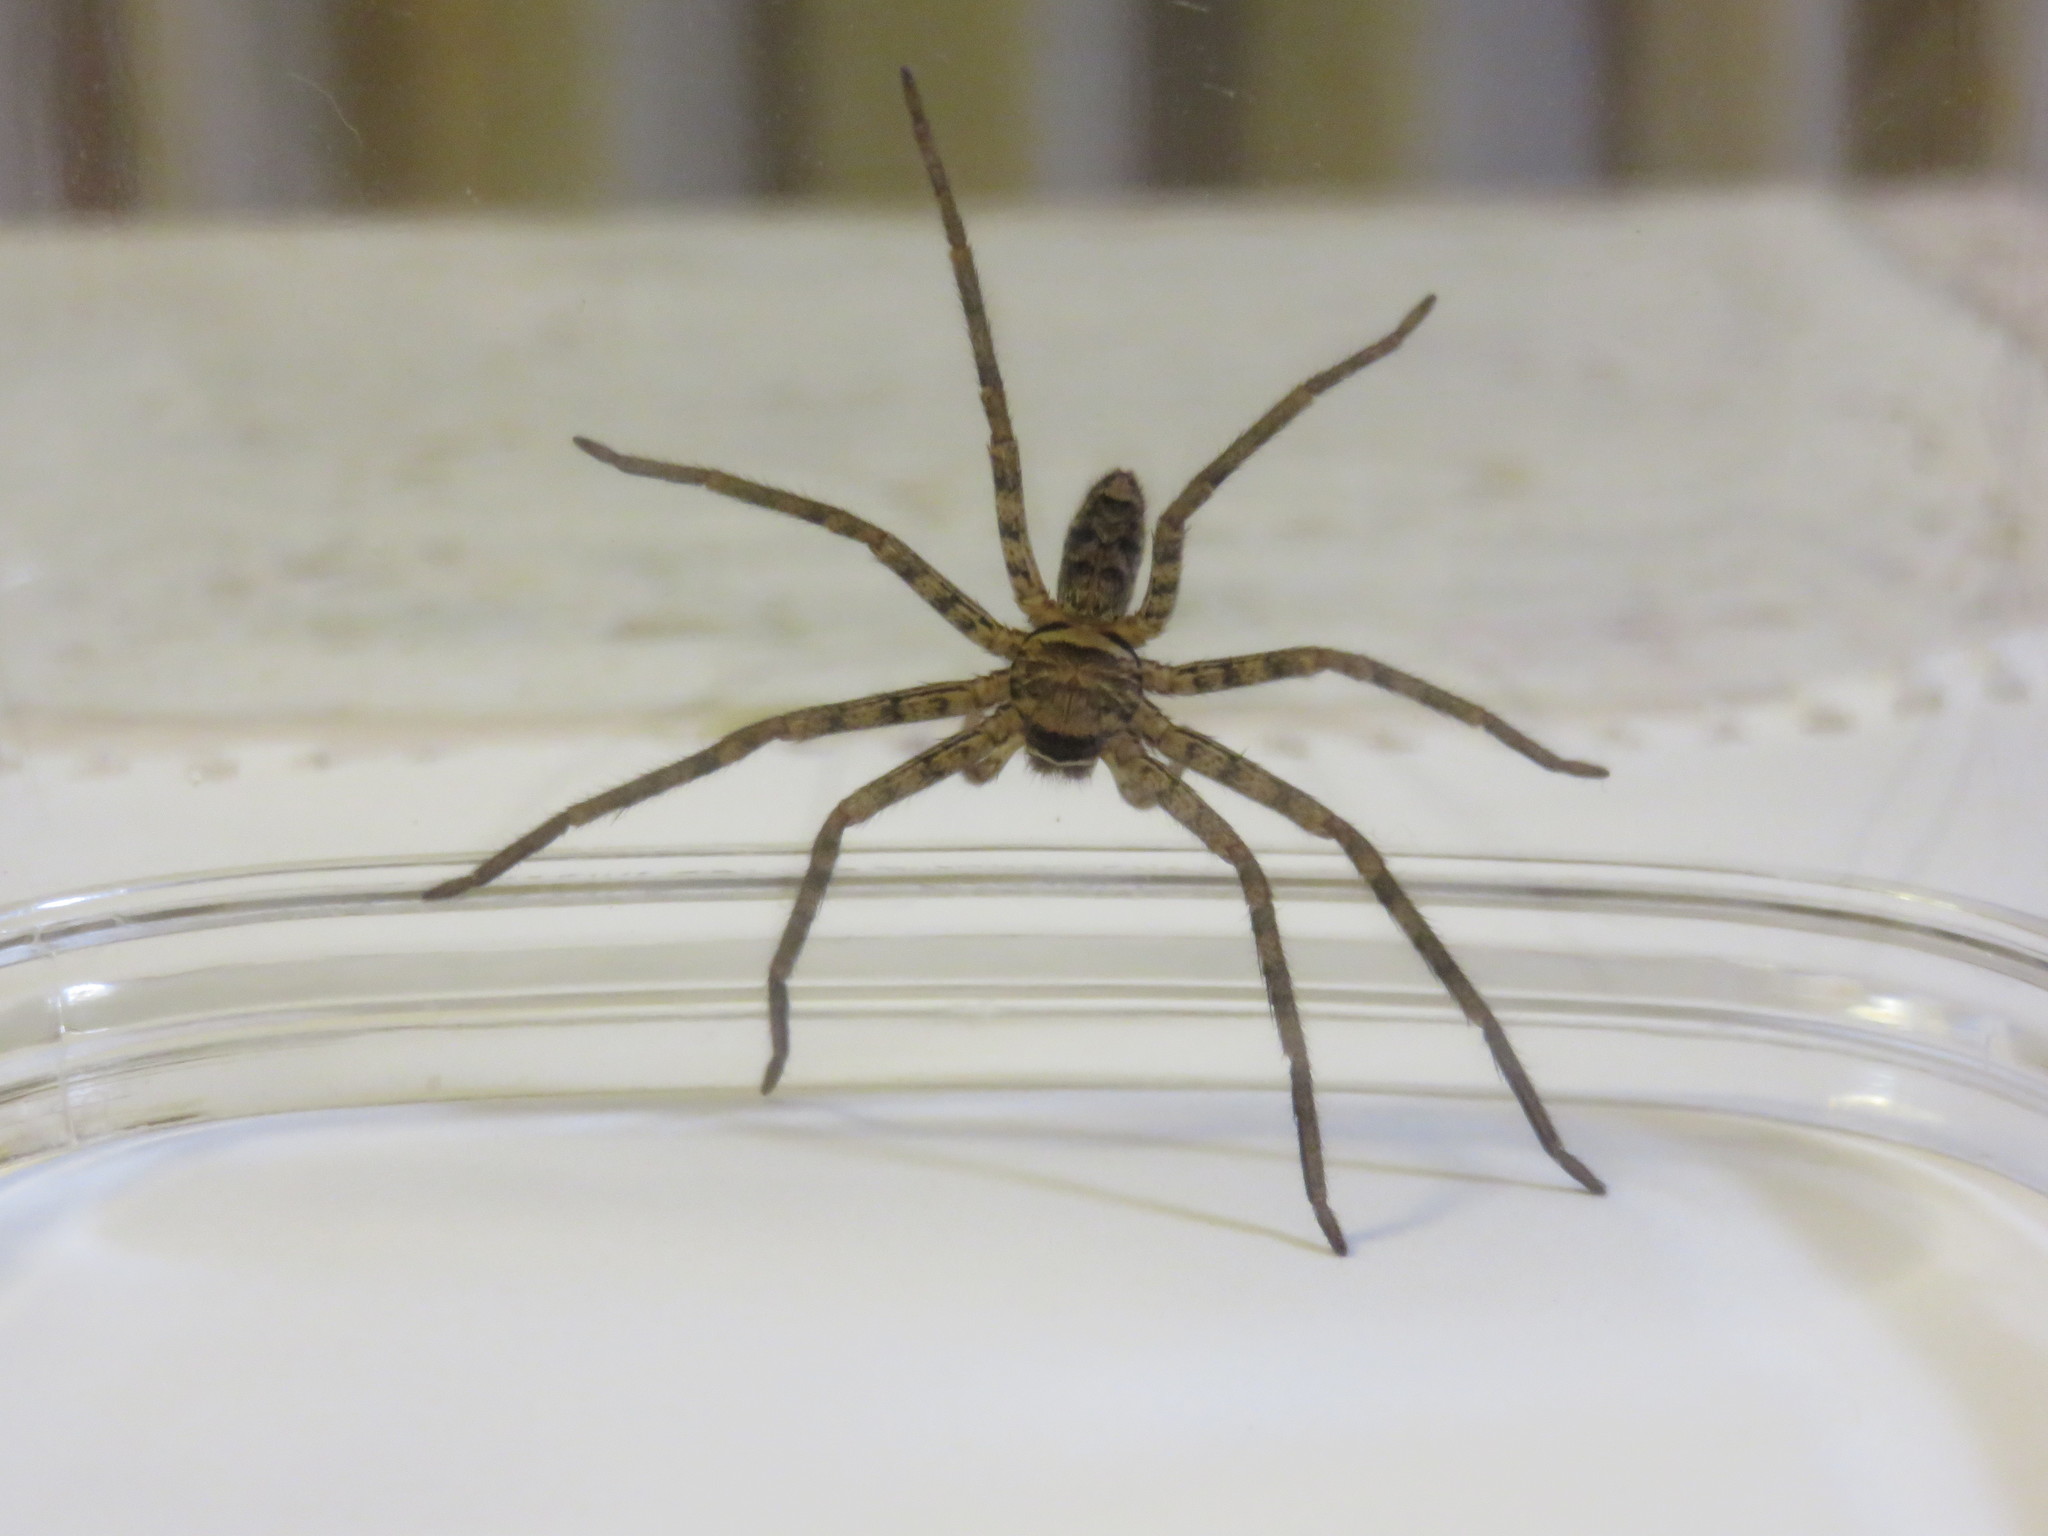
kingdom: Animalia
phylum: Arthropoda
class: Arachnida
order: Araneae
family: Sparassidae
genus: Heteropoda
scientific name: Heteropoda venatoria
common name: Huntsman spider
